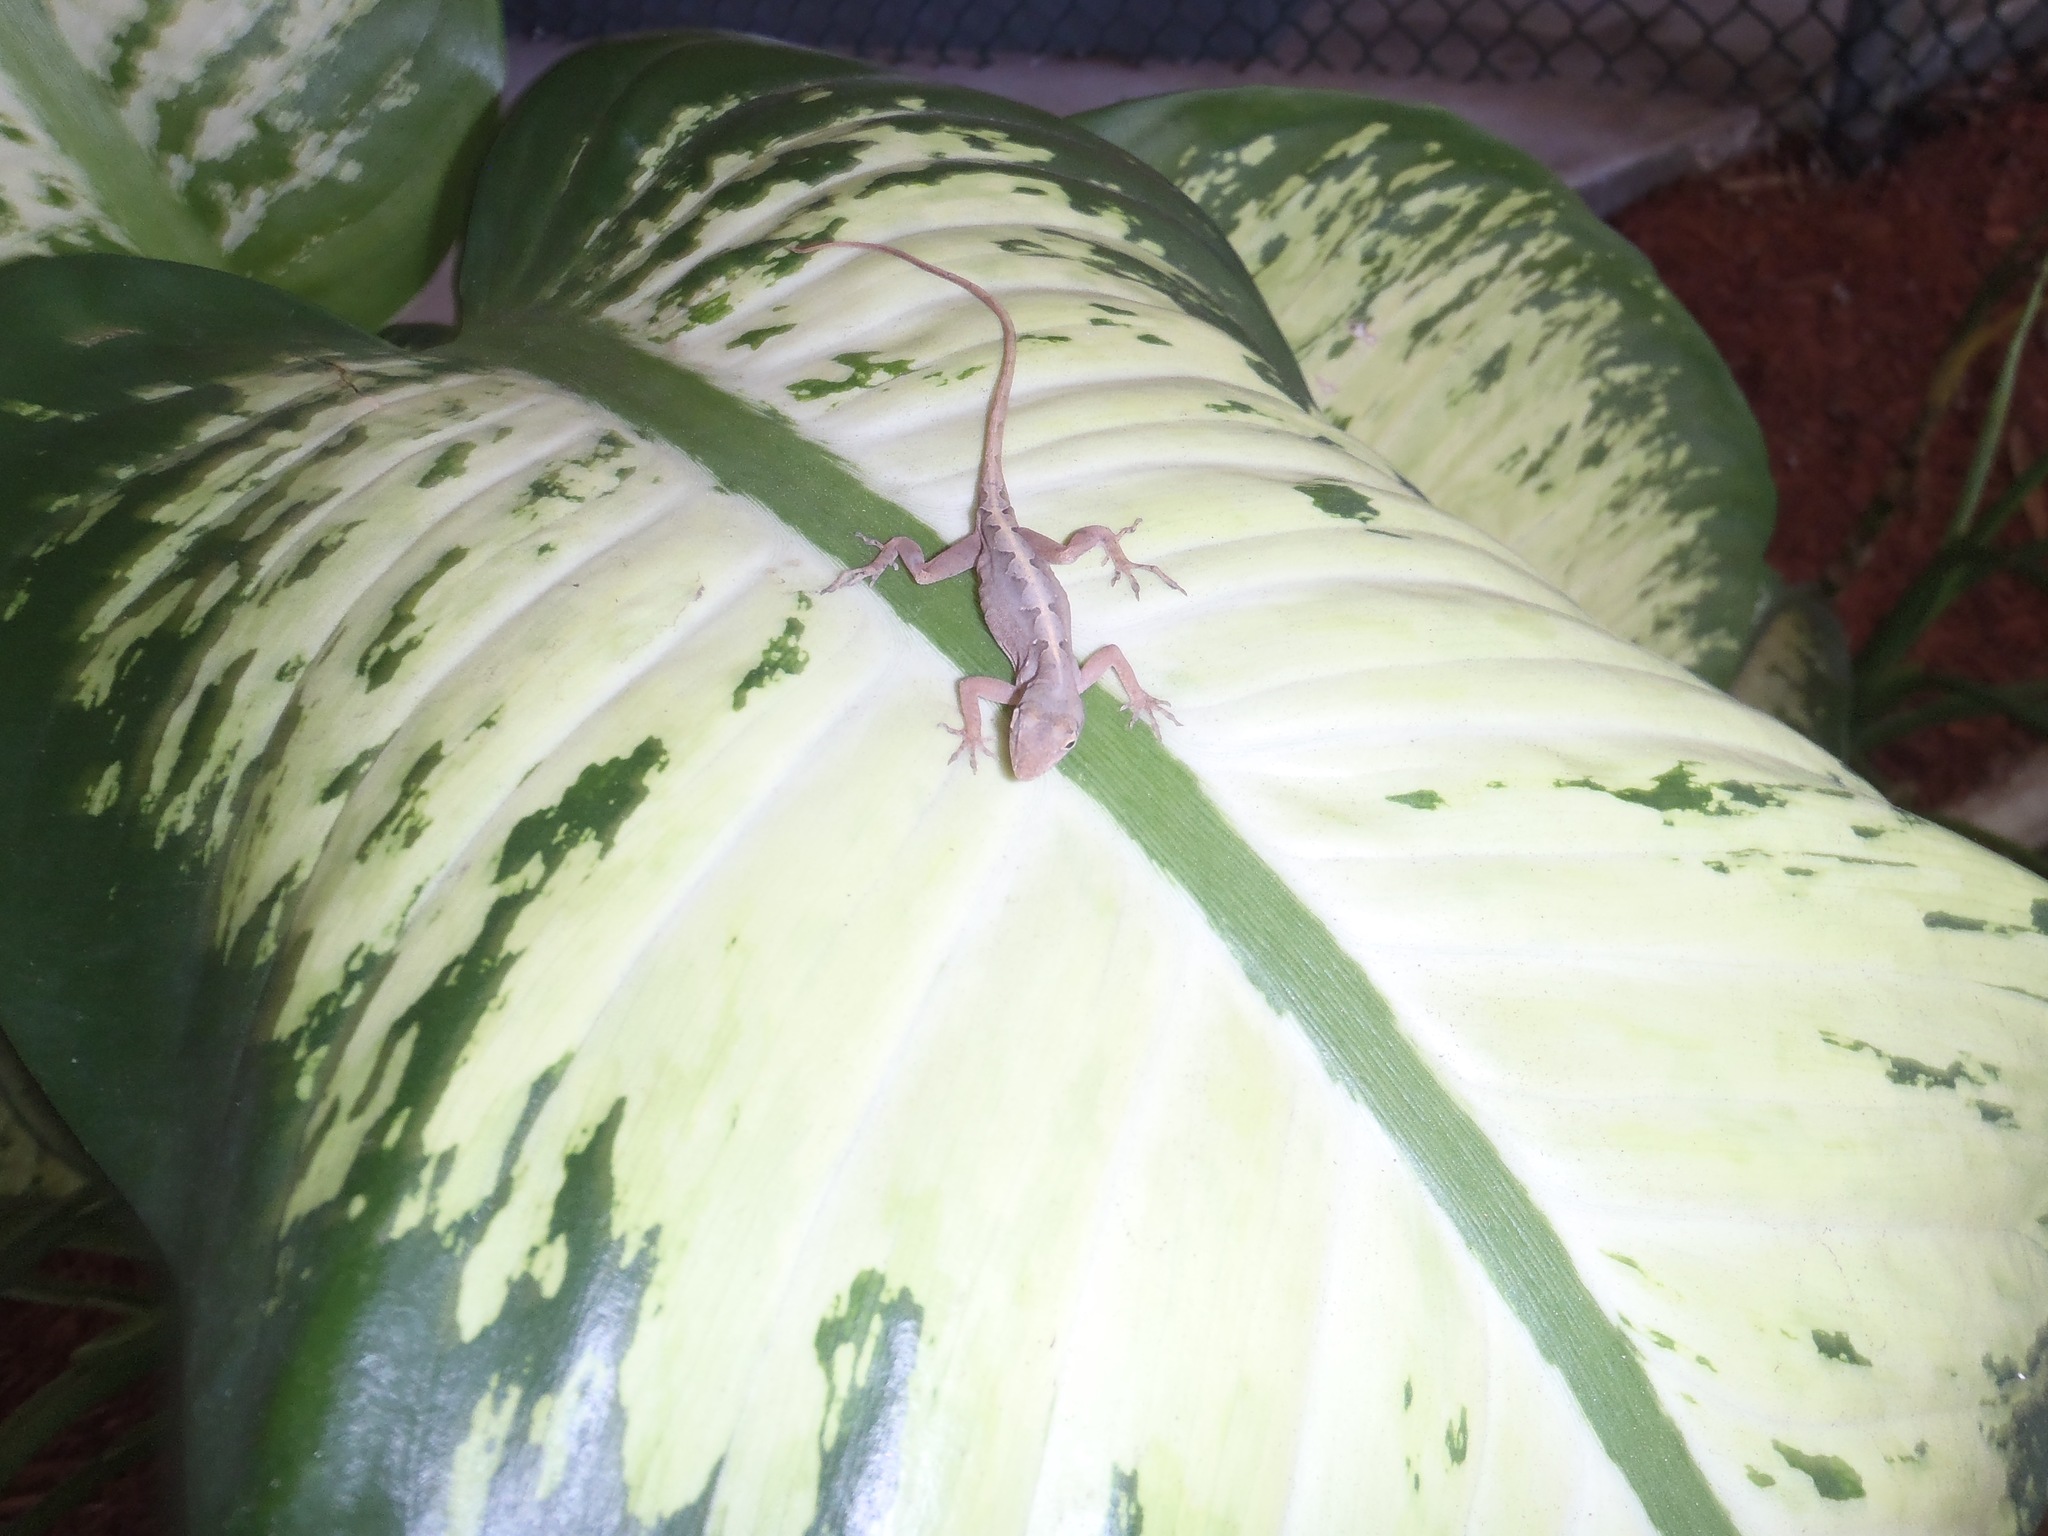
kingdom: Animalia
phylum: Chordata
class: Squamata
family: Dactyloidae
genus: Anolis
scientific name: Anolis sagrei
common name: Brown anole
